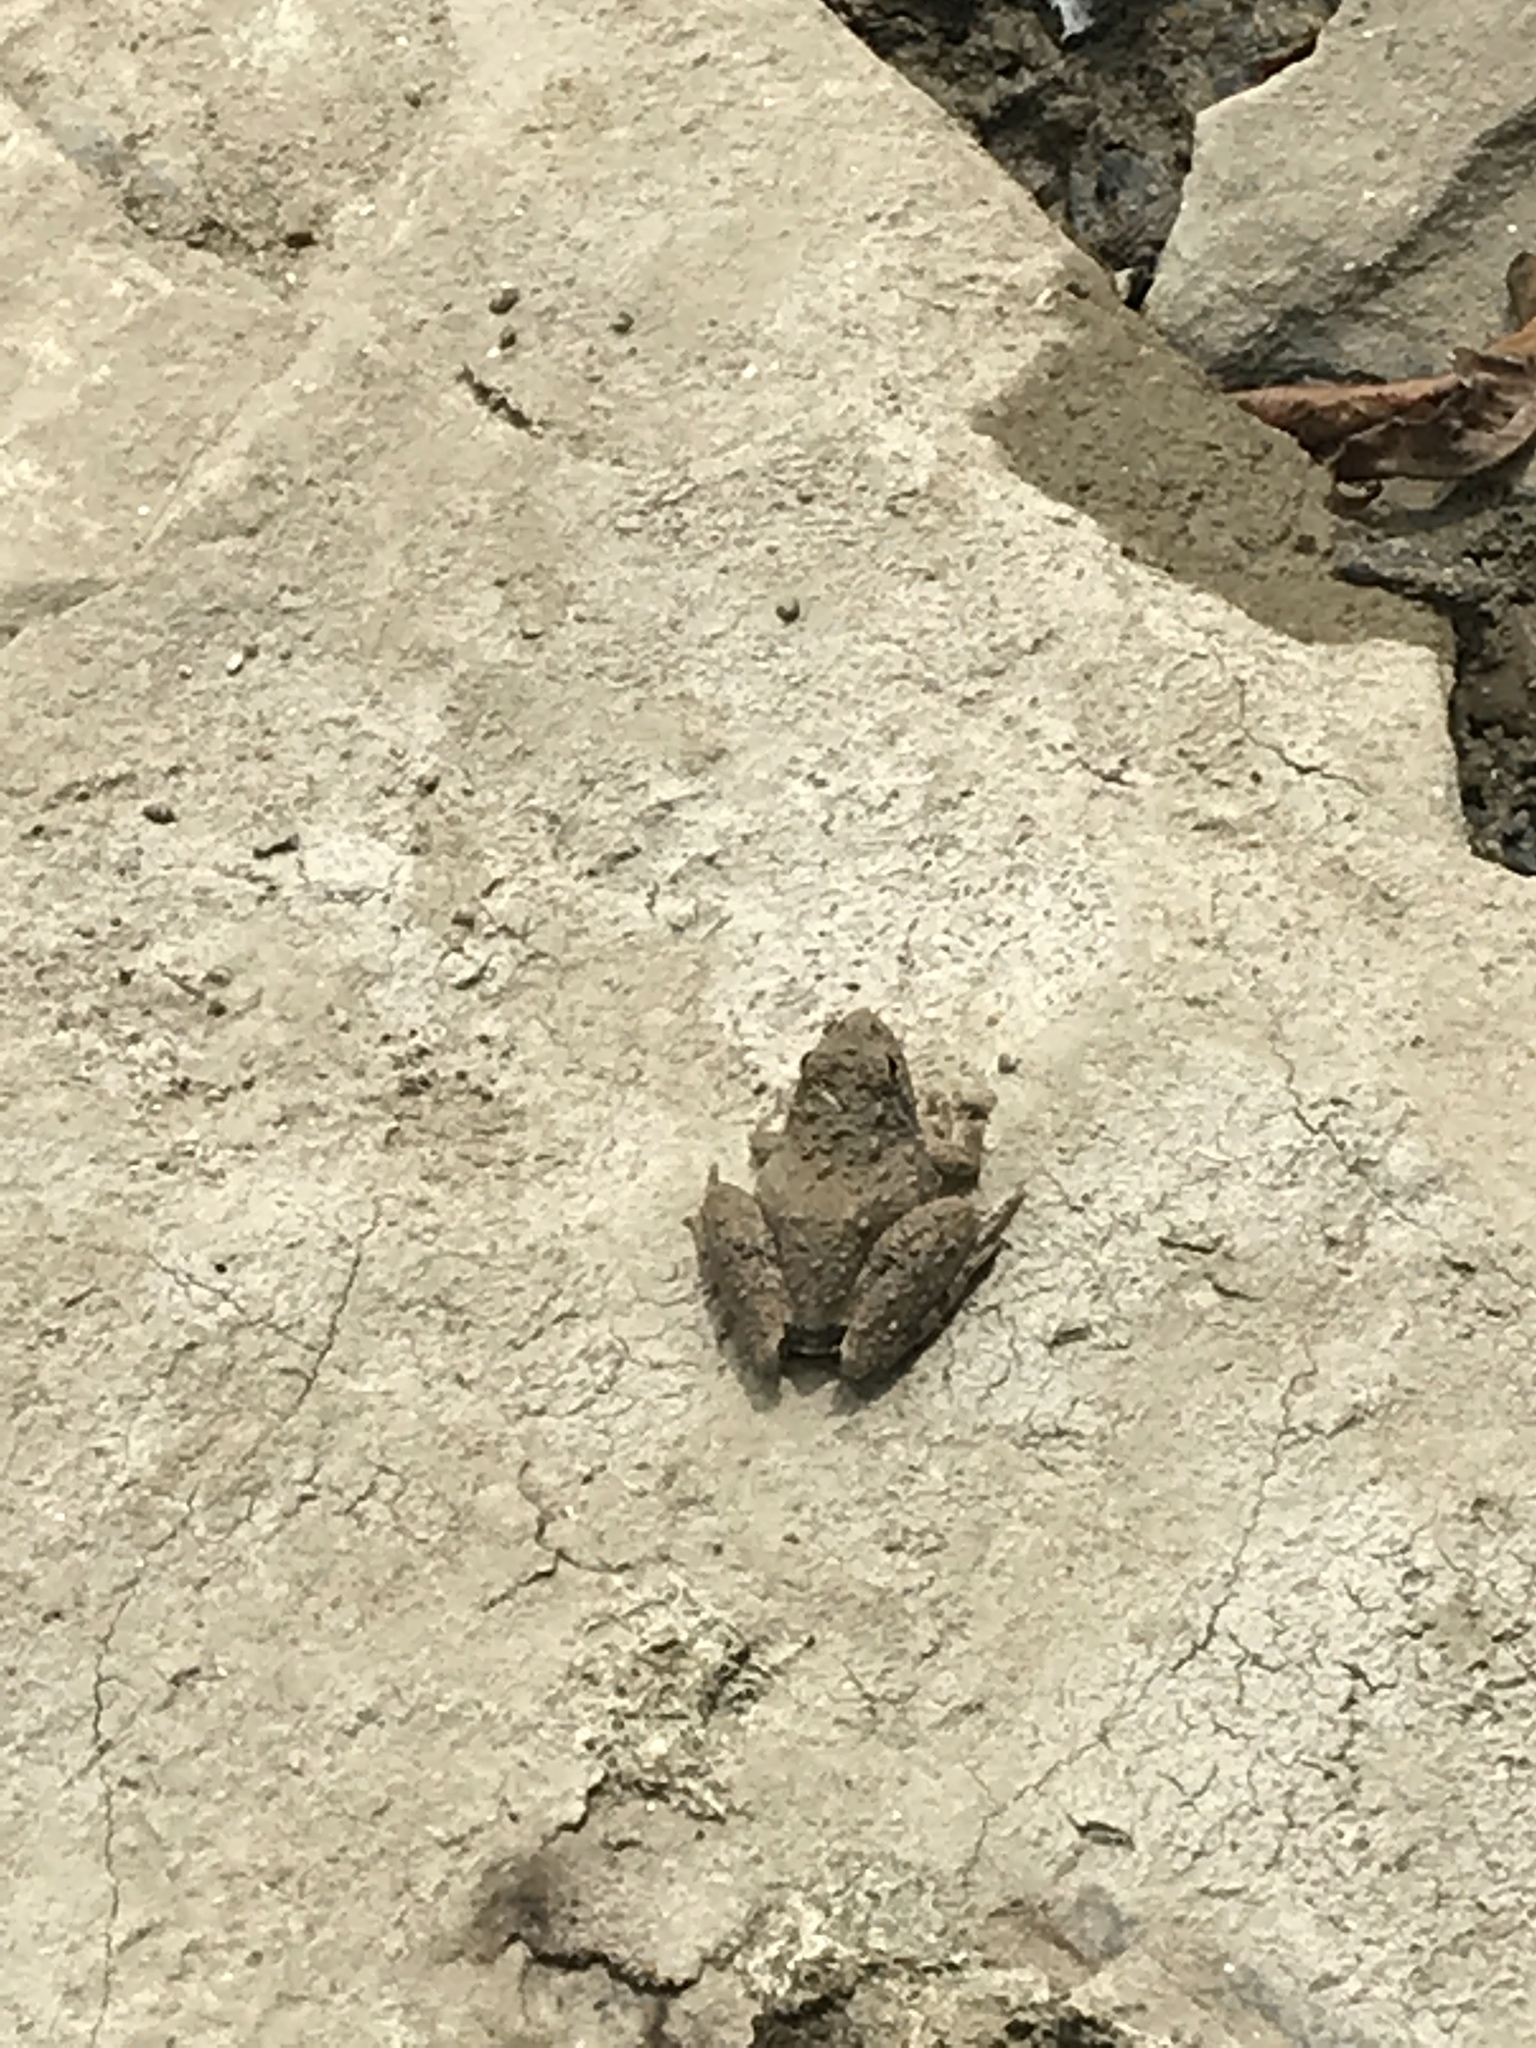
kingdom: Animalia
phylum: Chordata
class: Amphibia
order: Anura
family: Hylidae
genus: Acris
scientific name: Acris blanchardi
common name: Blanchard's cricket frog
